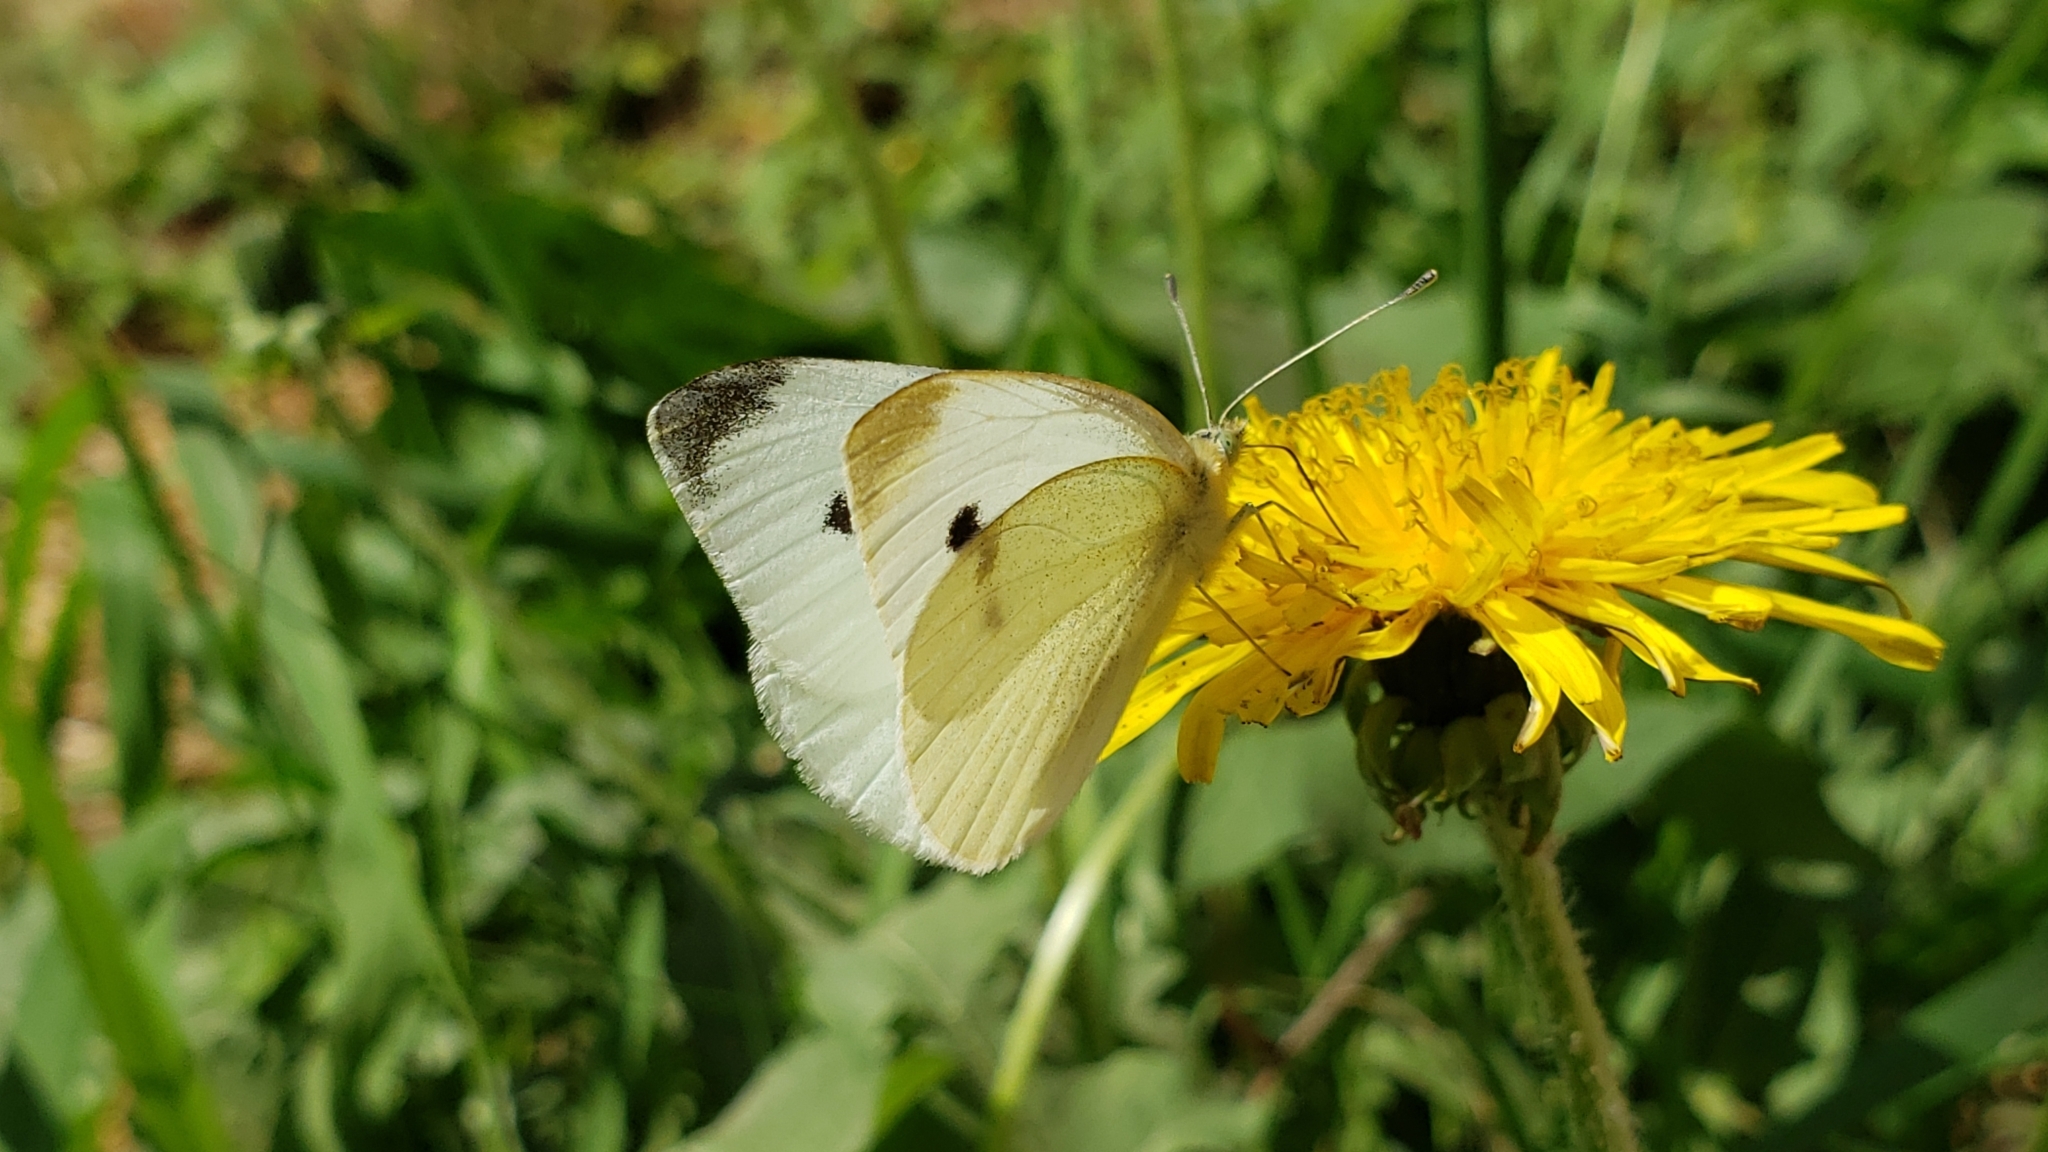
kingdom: Animalia
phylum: Arthropoda
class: Insecta
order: Lepidoptera
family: Pieridae
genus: Pieris
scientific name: Pieris rapae
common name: Small white
